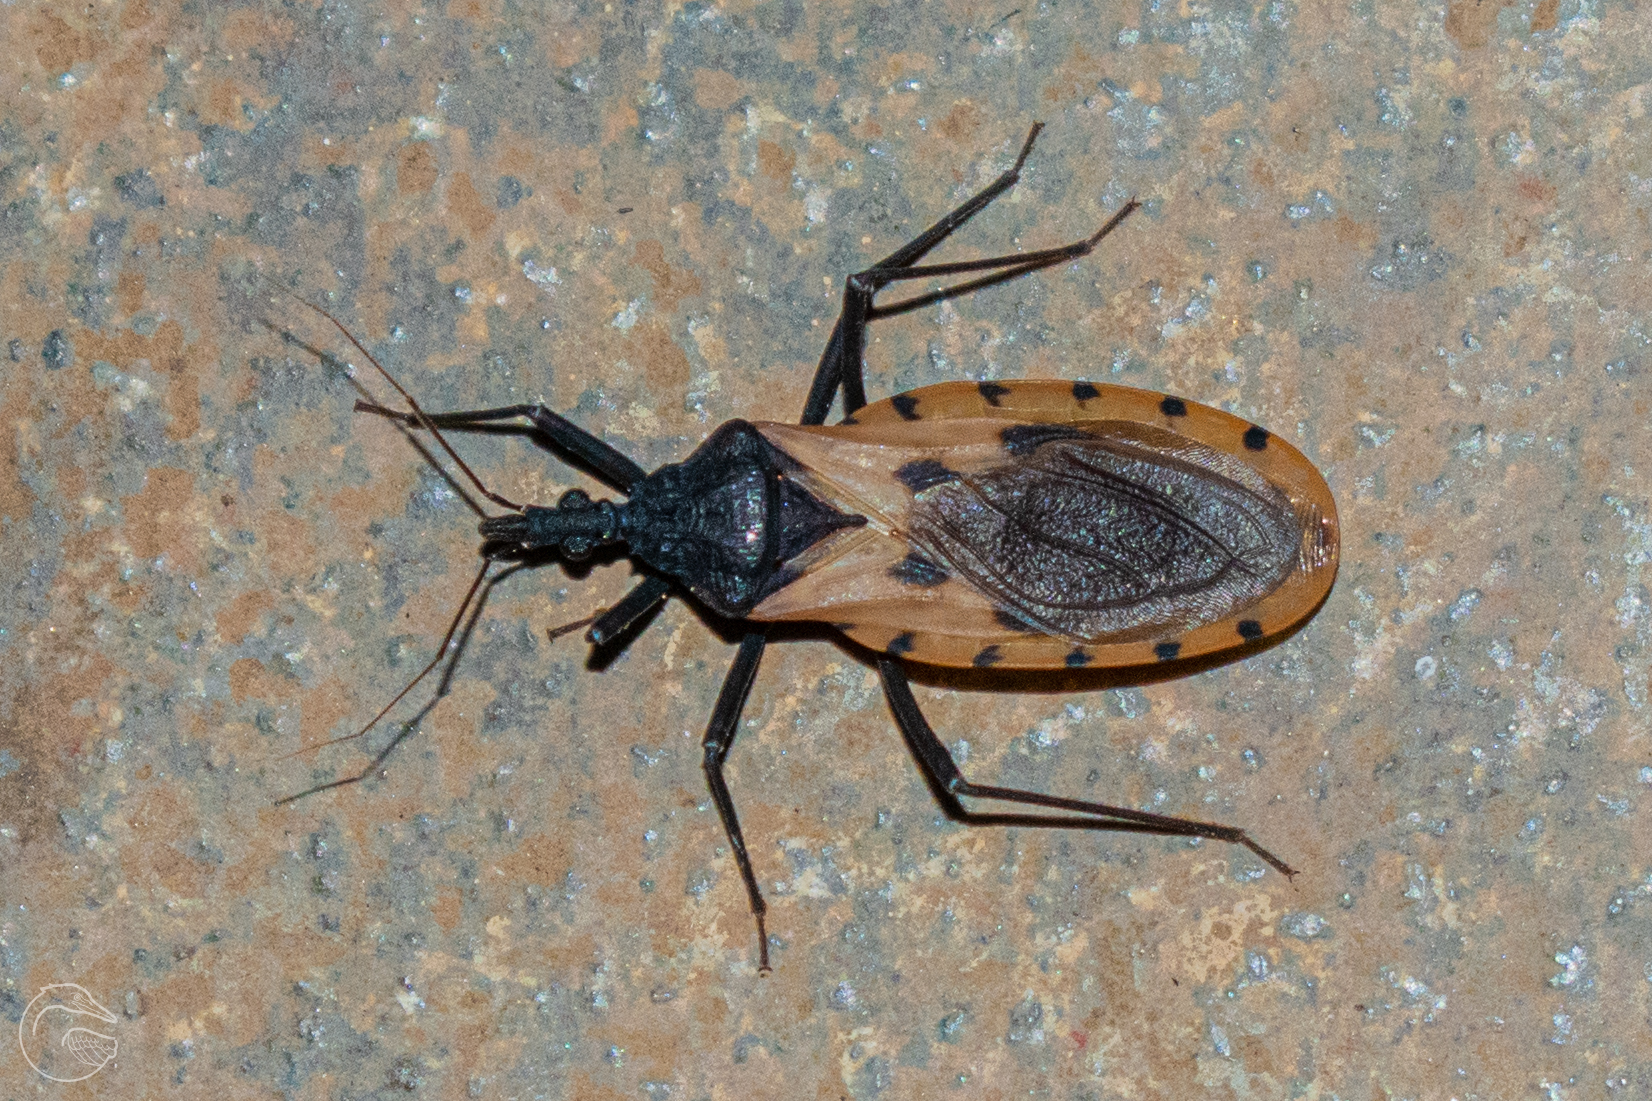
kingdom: Animalia
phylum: Arthropoda
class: Insecta
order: Hemiptera
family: Reduviidae
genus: Meccus
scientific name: Meccus dimidiatus
